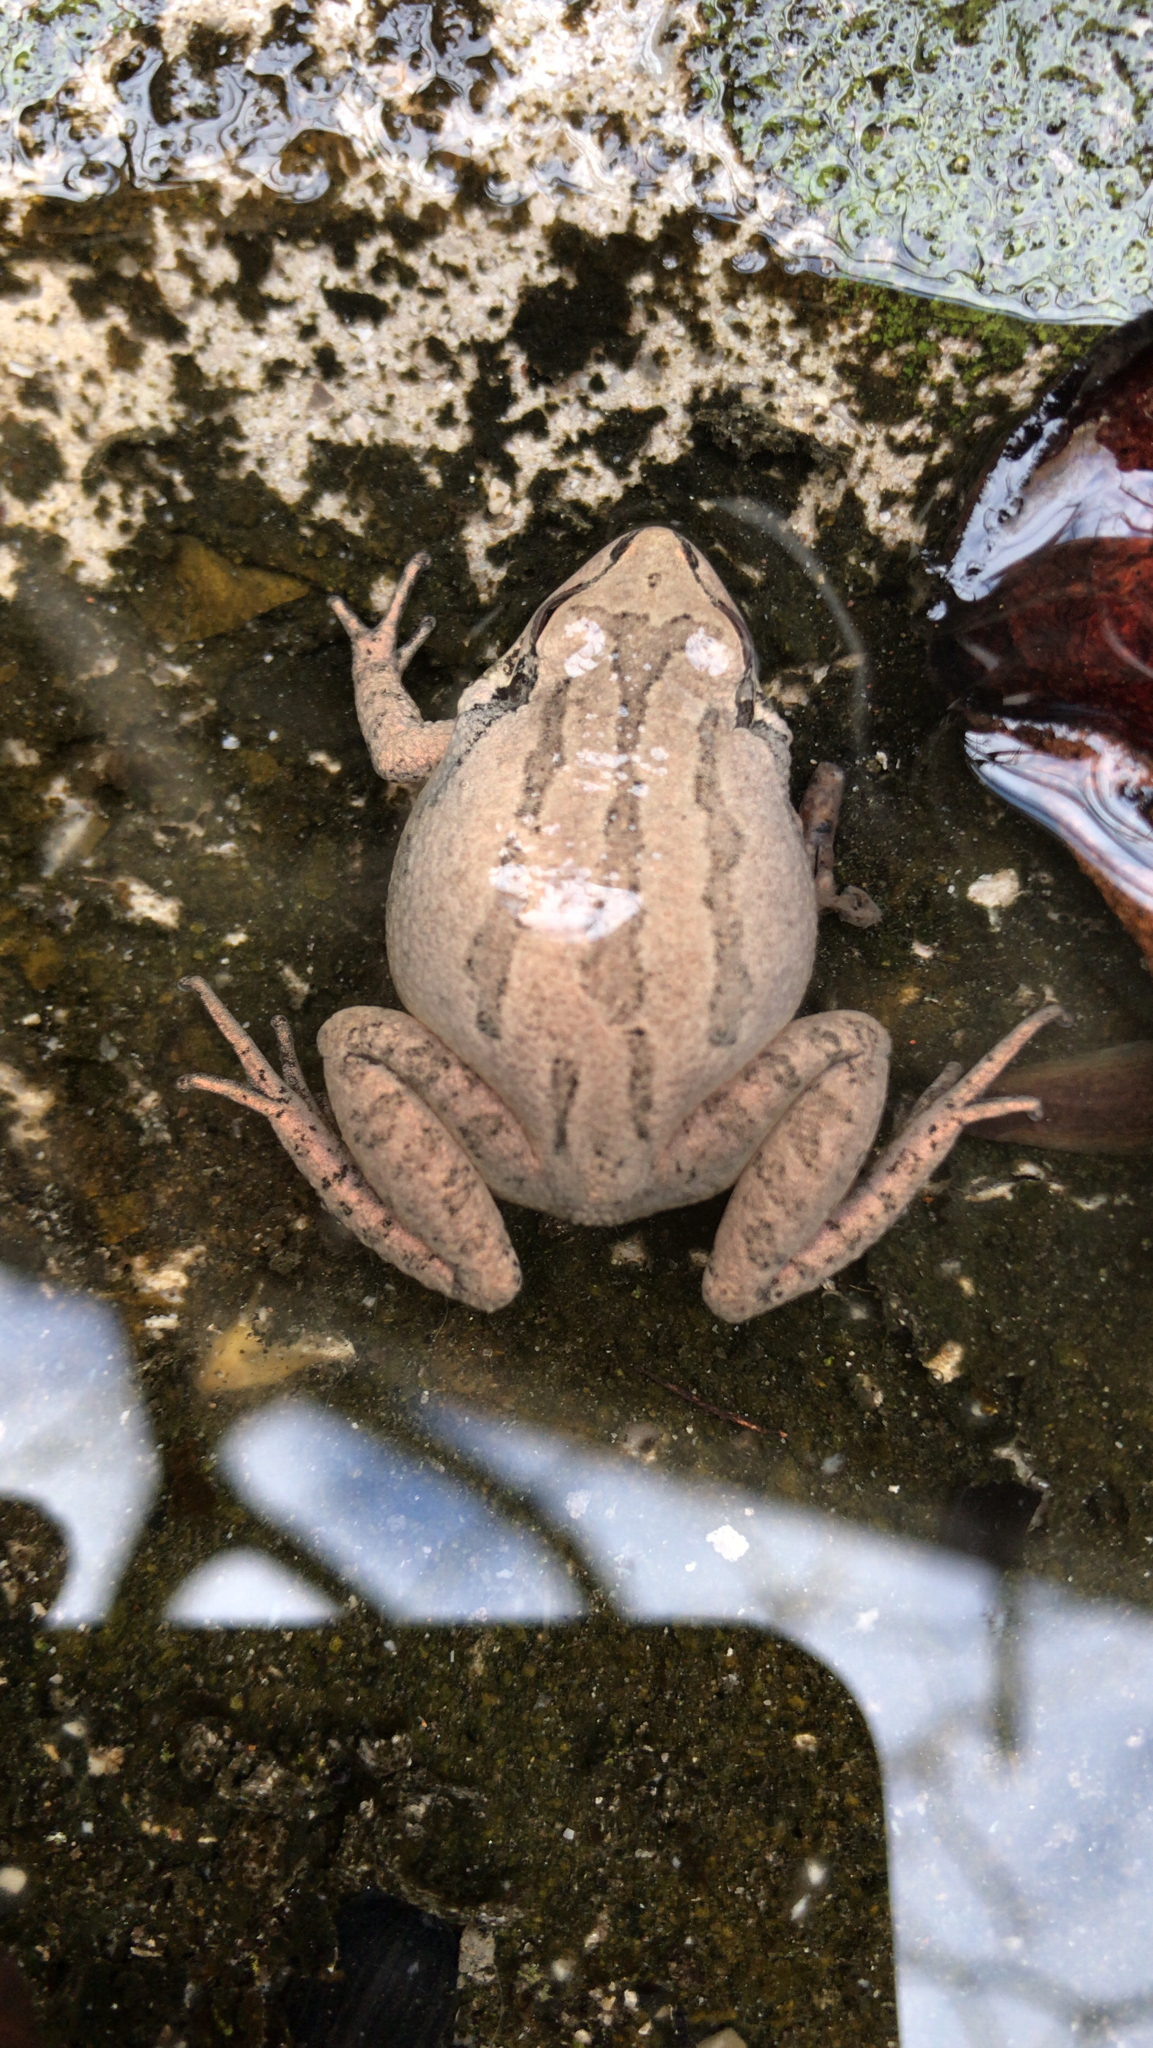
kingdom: Animalia
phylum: Chordata
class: Amphibia
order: Anura
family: Hylidae
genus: Pseudacris
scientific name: Pseudacris feriarum
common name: Upland chorus frog
